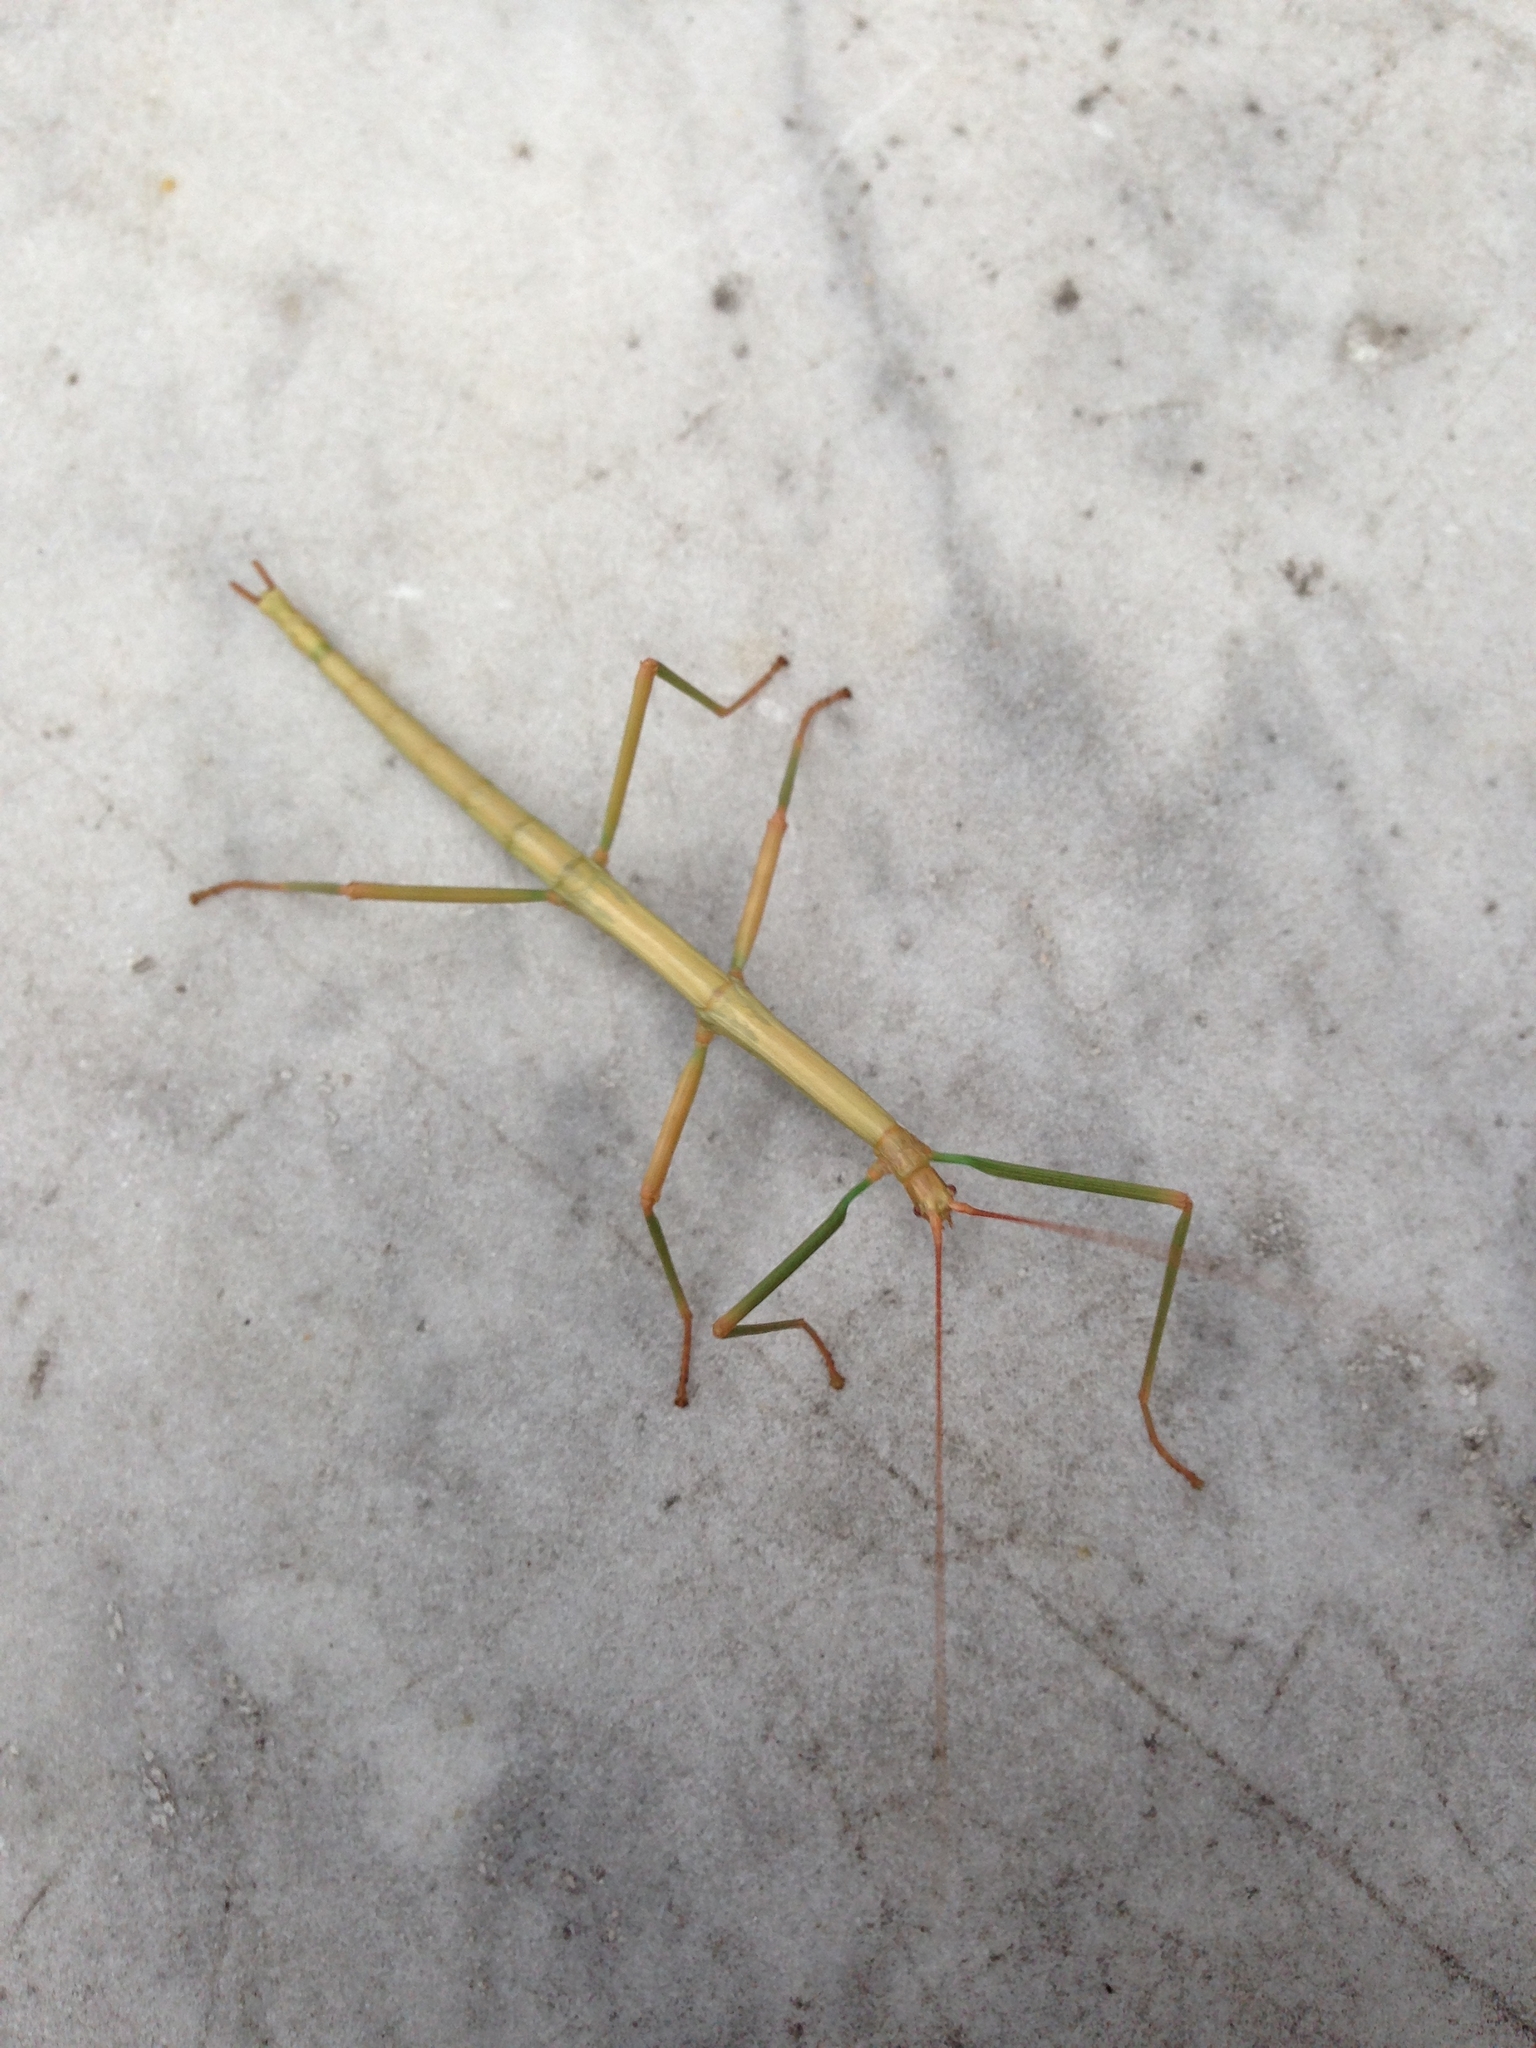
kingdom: Animalia
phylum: Arthropoda
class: Insecta
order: Phasmida
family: Diapheromeridae
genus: Diapheromera
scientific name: Diapheromera femorata
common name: Common american walkingstick
